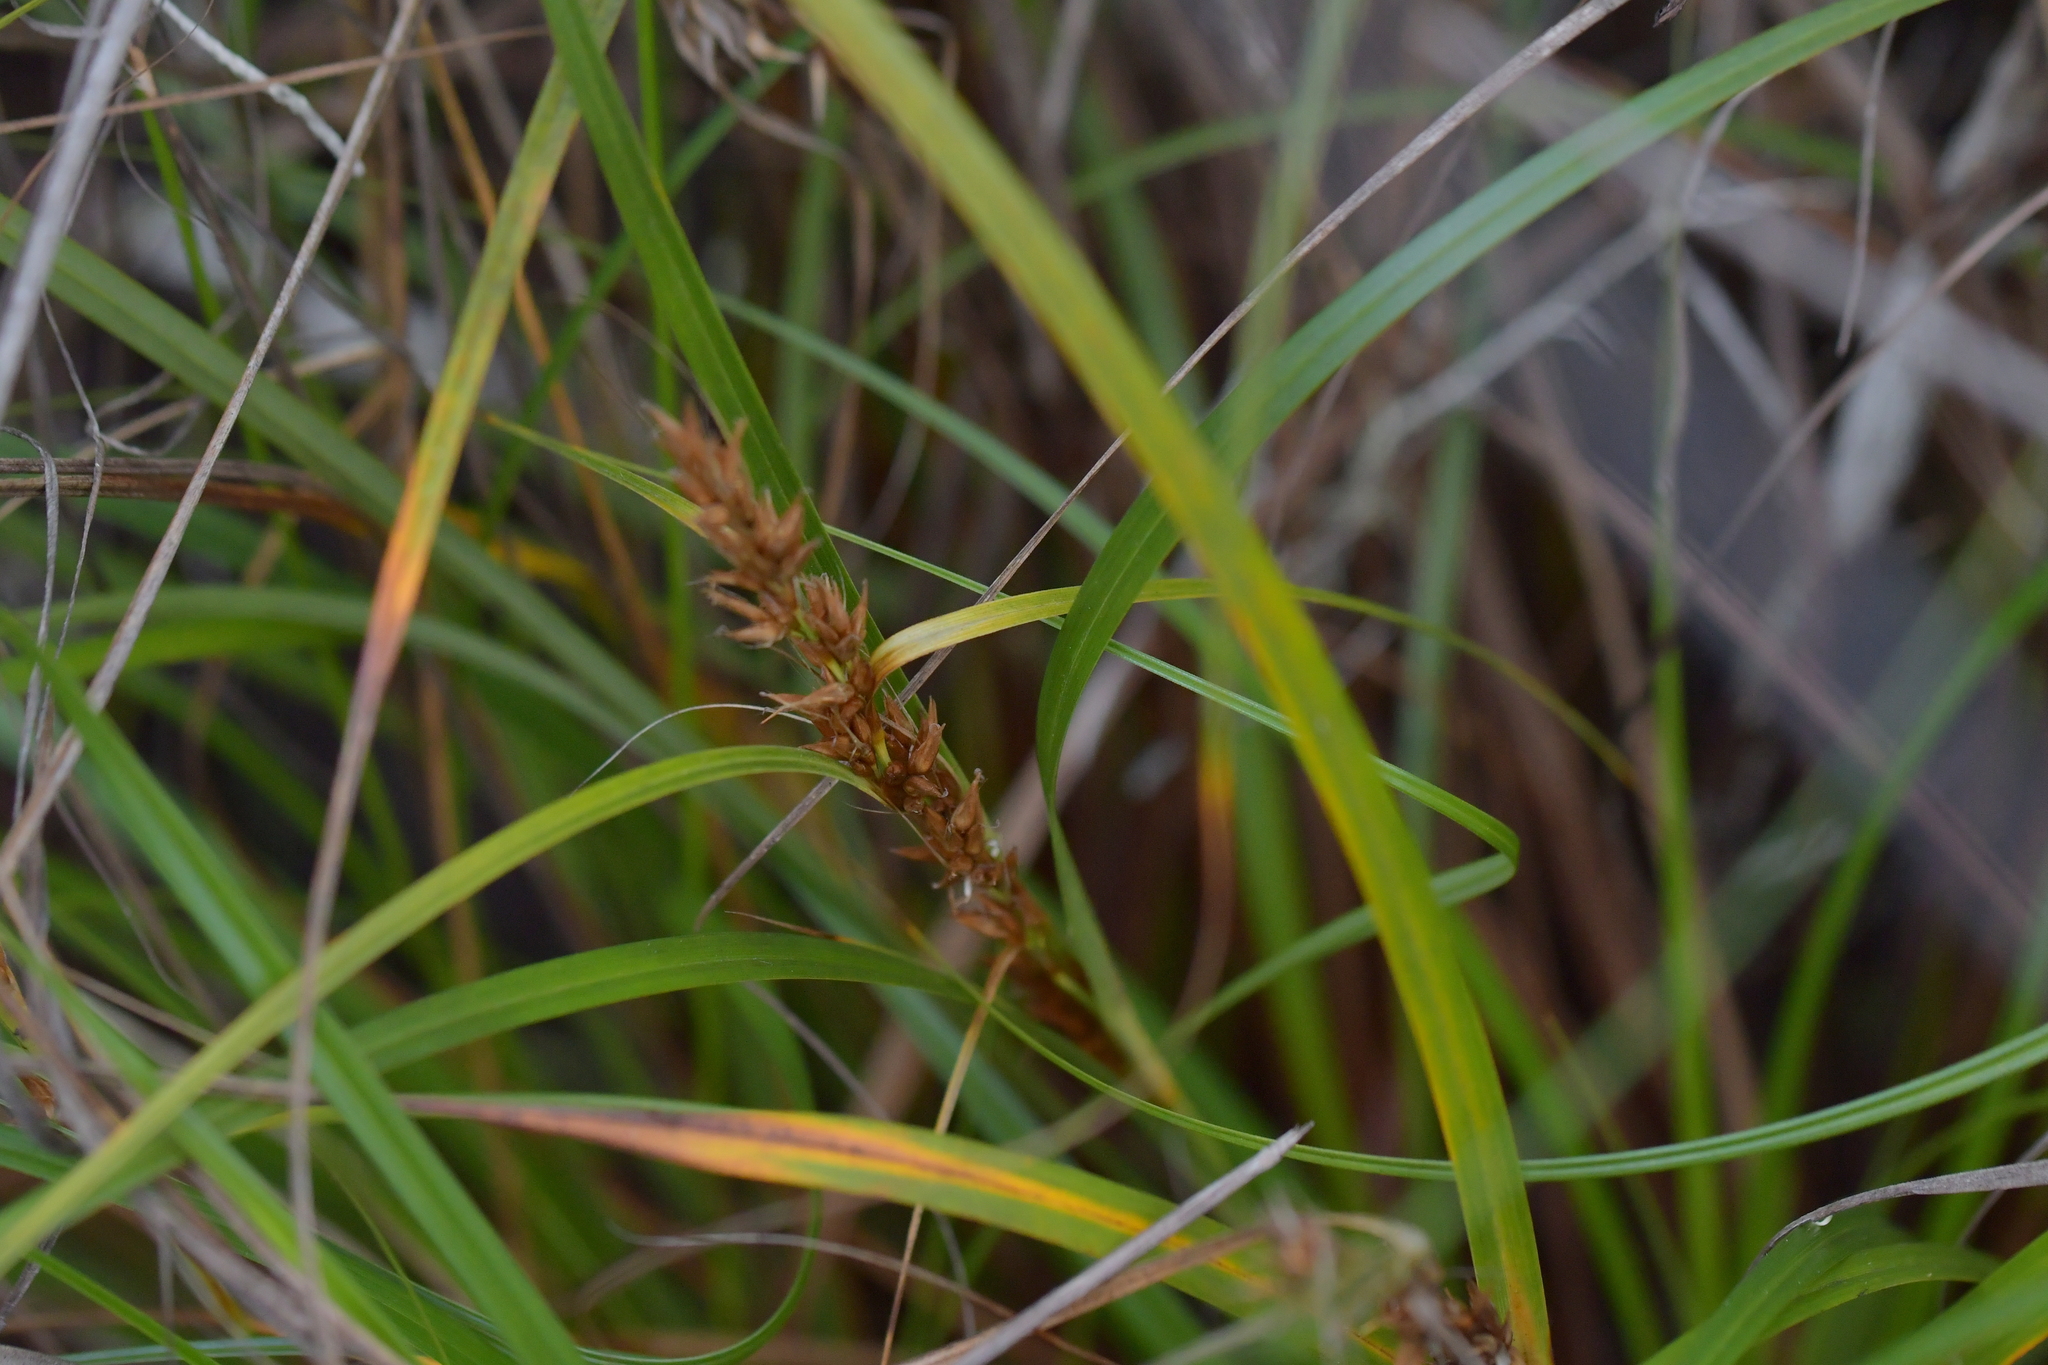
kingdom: Plantae
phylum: Tracheophyta
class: Liliopsida
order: Poales
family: Cyperaceae
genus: Morelotia
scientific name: Morelotia affinis
